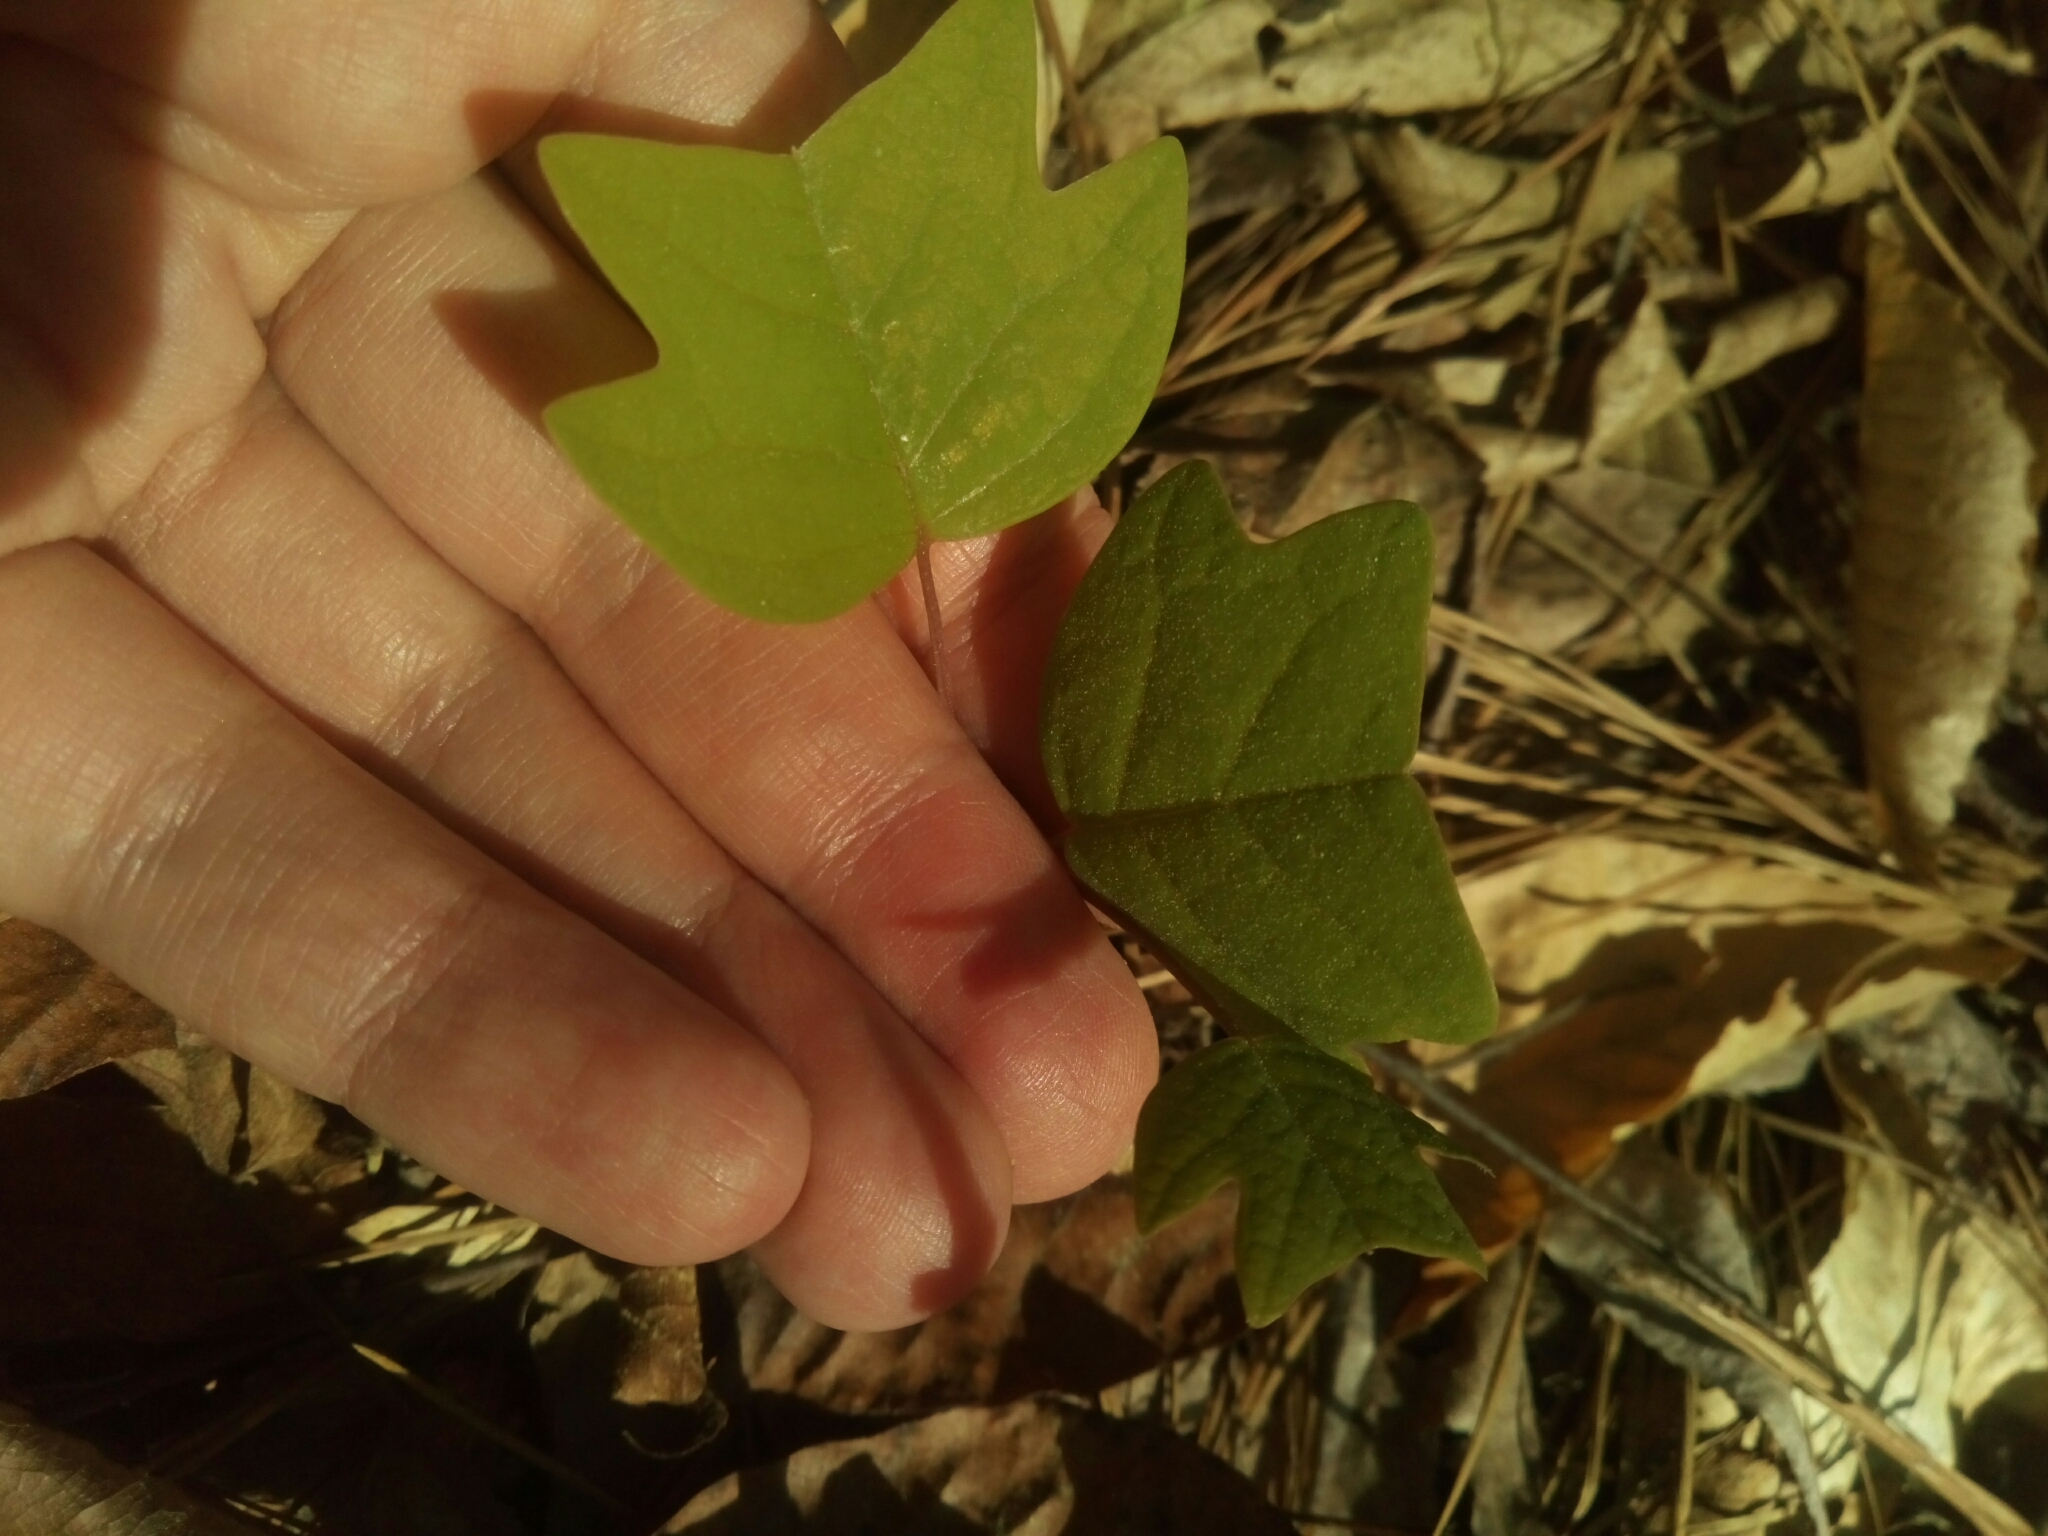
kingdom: Plantae
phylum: Tracheophyta
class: Magnoliopsida
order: Magnoliales
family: Magnoliaceae
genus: Liriodendron
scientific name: Liriodendron tulipifera
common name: Tulip tree
